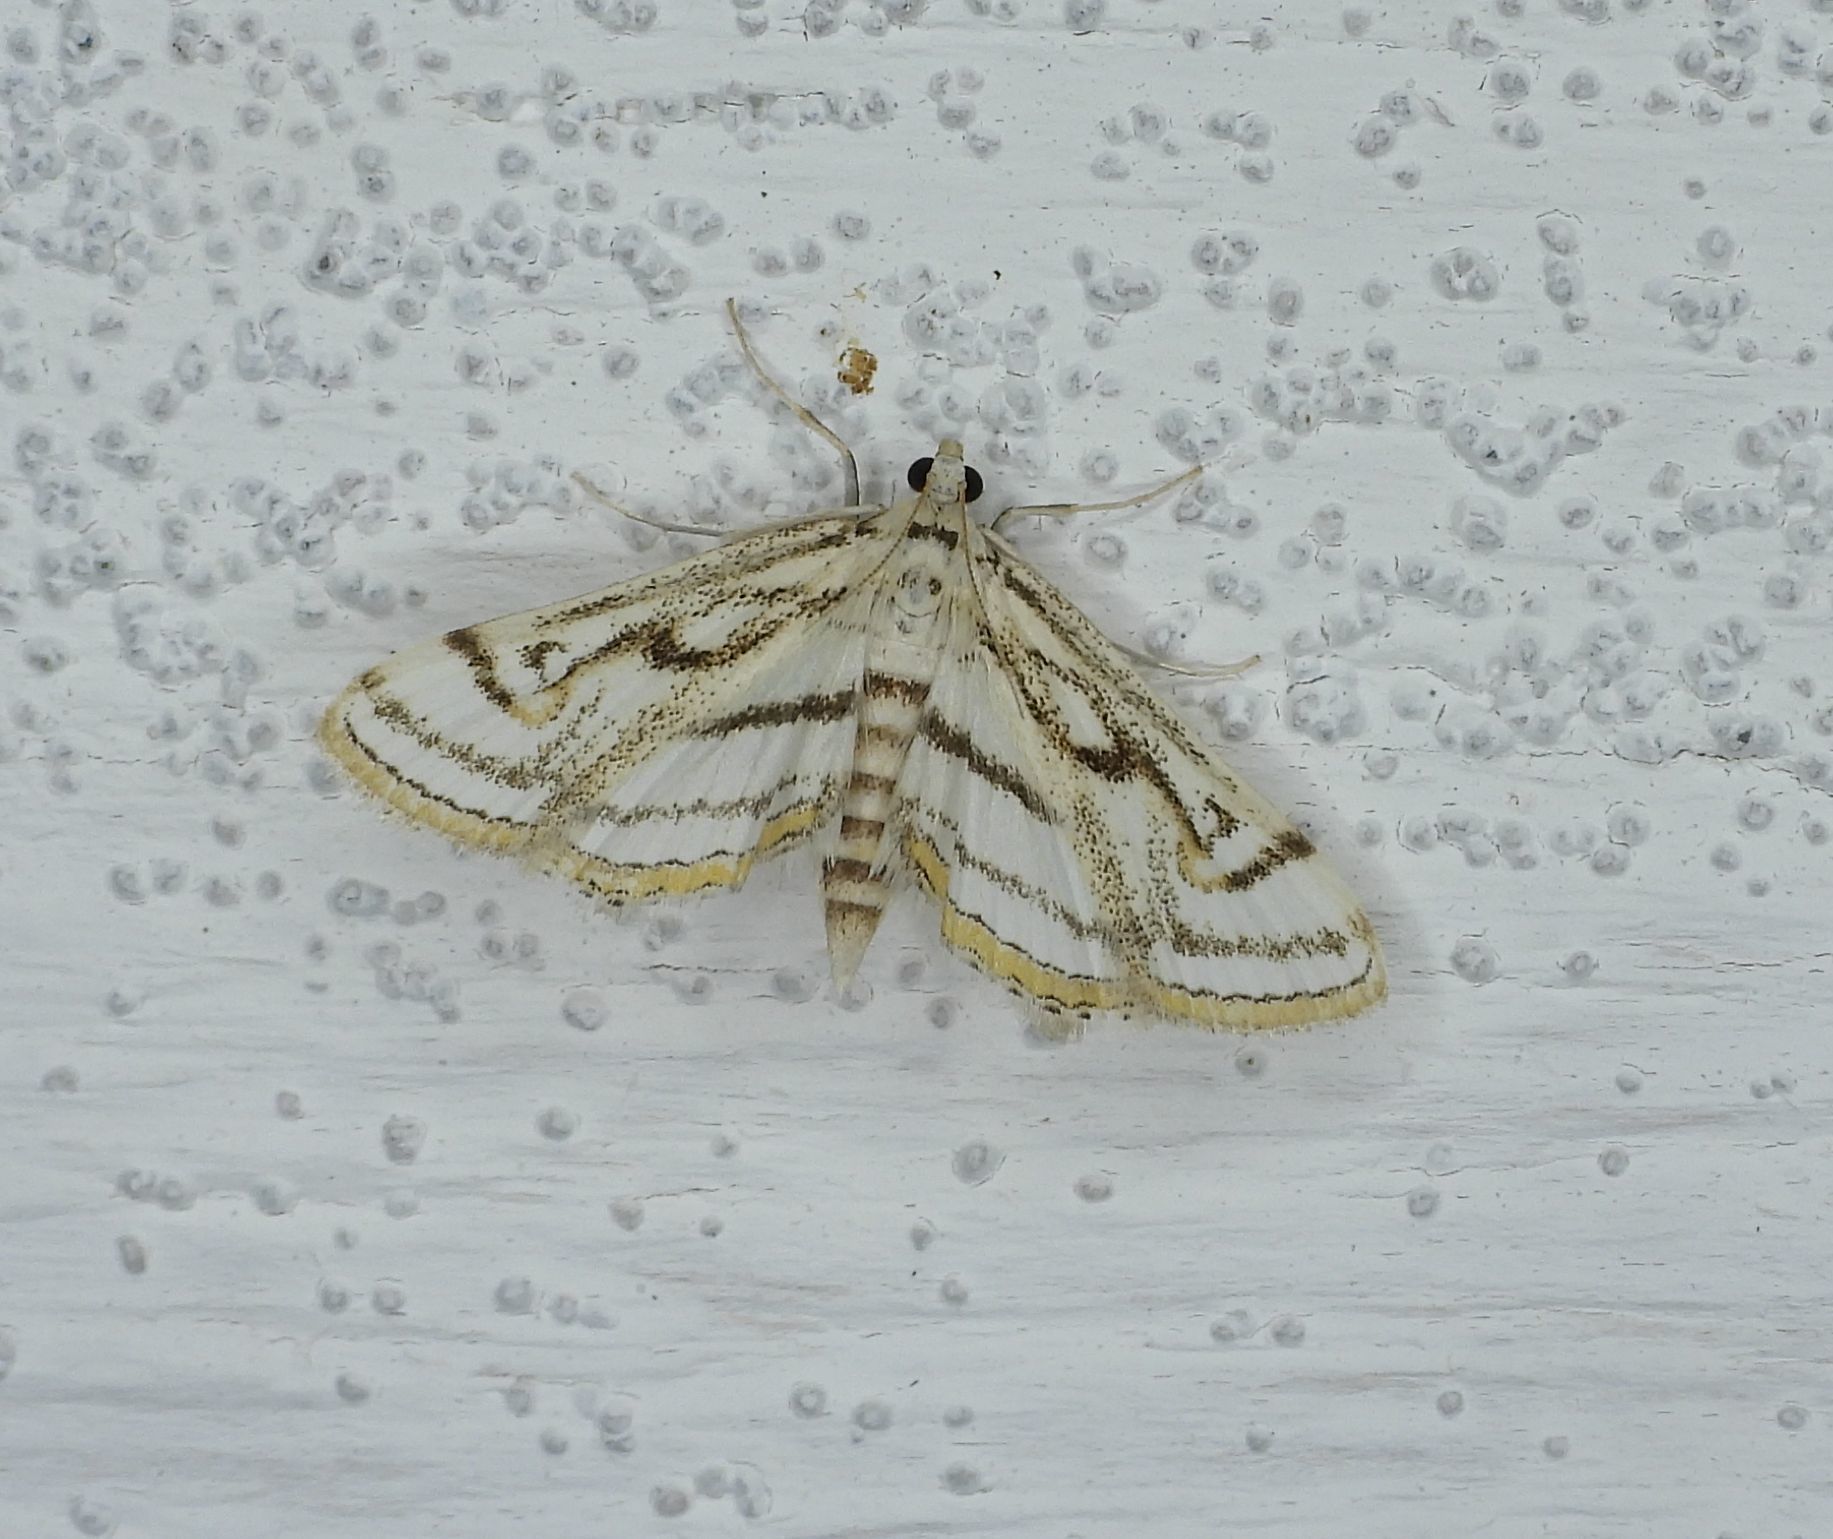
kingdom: Animalia
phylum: Arthropoda
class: Insecta
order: Lepidoptera
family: Crambidae
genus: Parapoynx
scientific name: Parapoynx badiusalis
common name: Chestnut-marked pondweed moth
